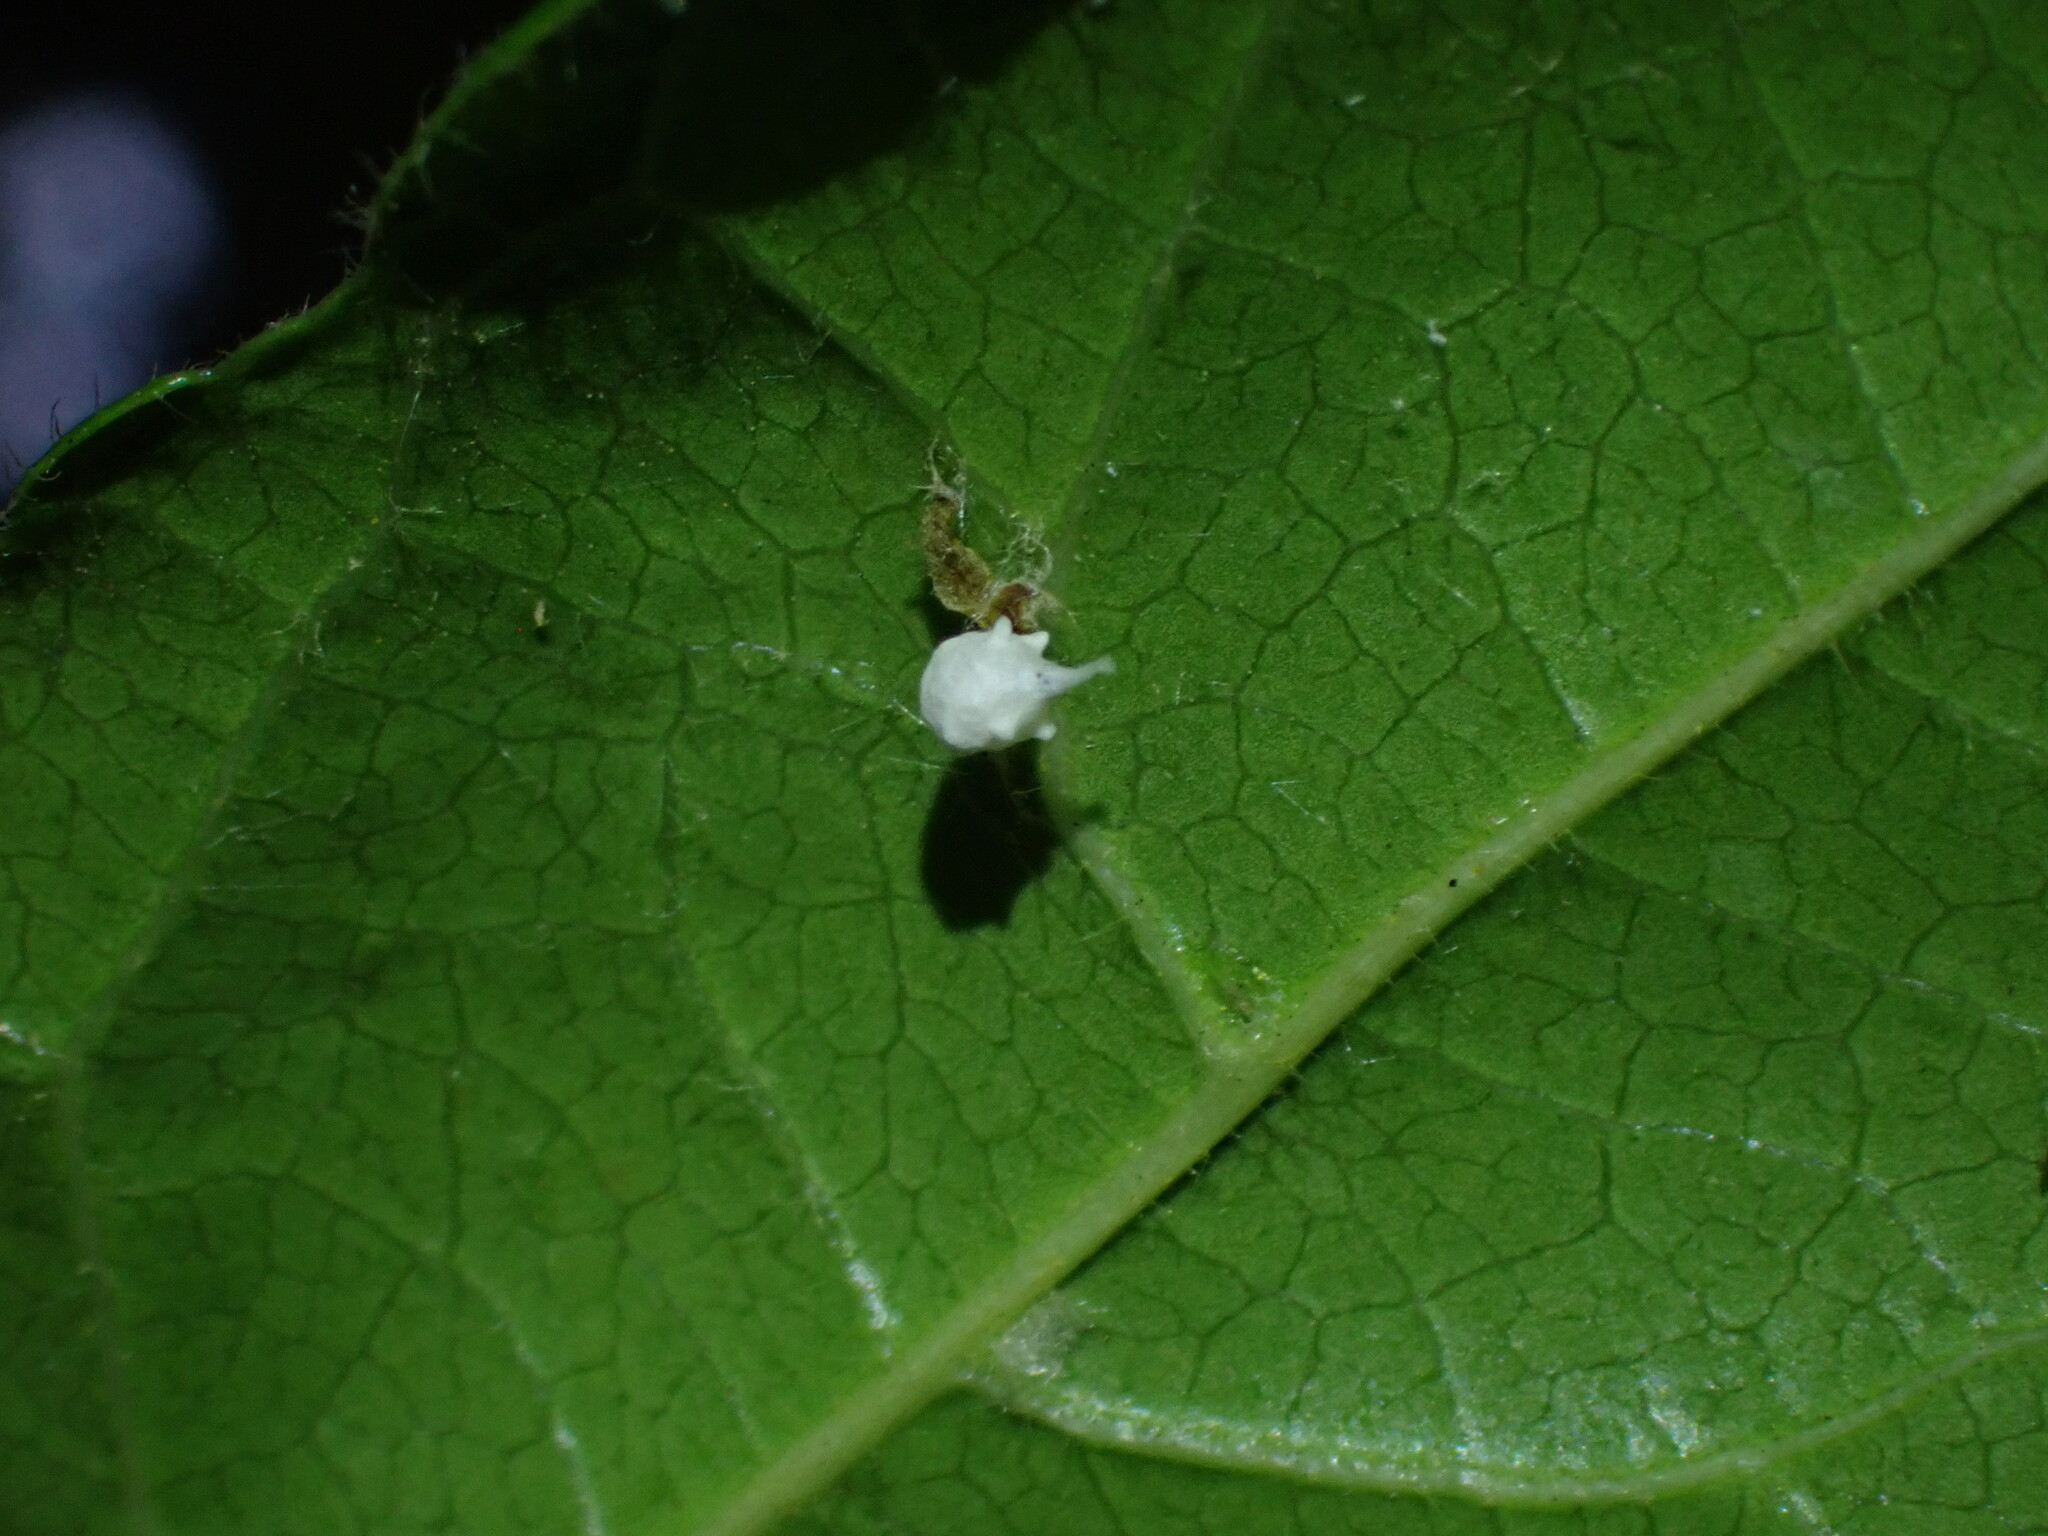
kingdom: Animalia
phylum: Arthropoda
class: Arachnida
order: Araneae
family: Theridiidae
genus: Paidiscura
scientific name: Paidiscura pallens
